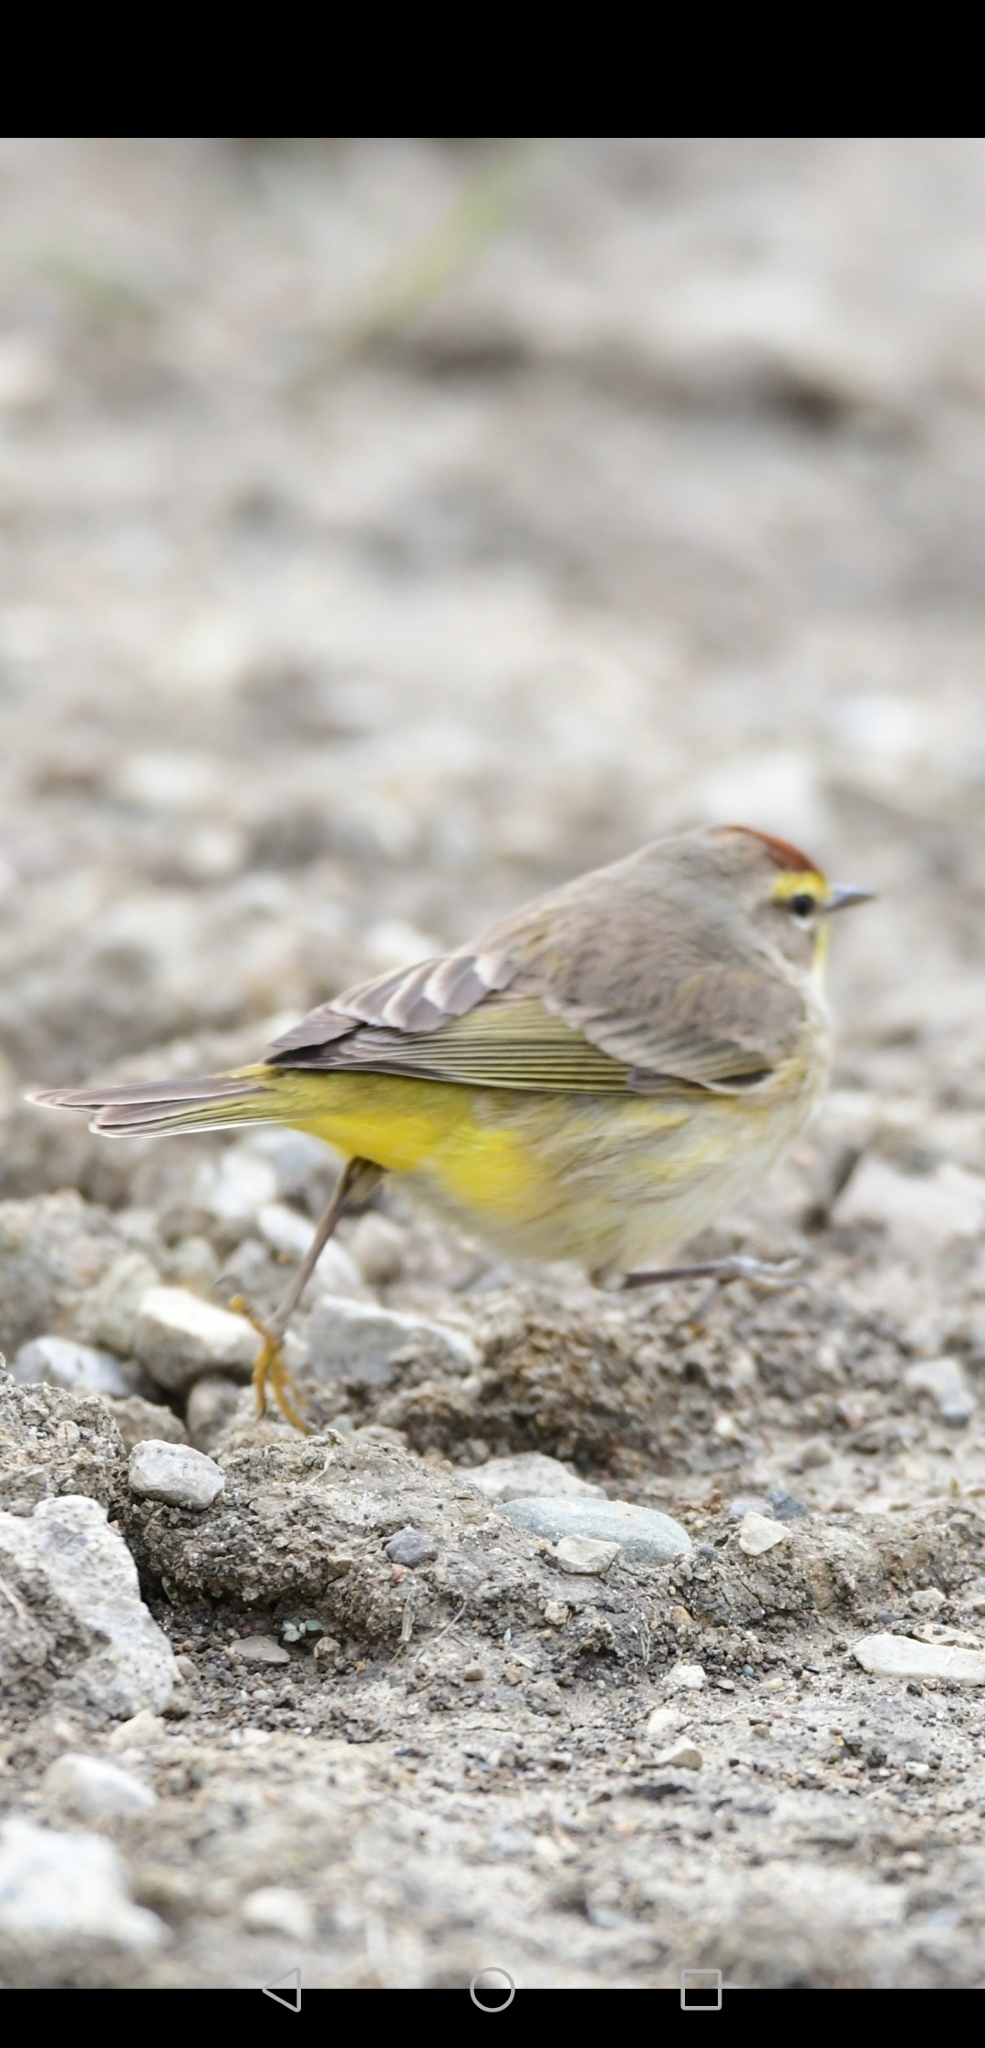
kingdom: Animalia
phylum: Chordata
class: Aves
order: Passeriformes
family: Parulidae
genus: Setophaga
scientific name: Setophaga palmarum
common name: Palm warbler
